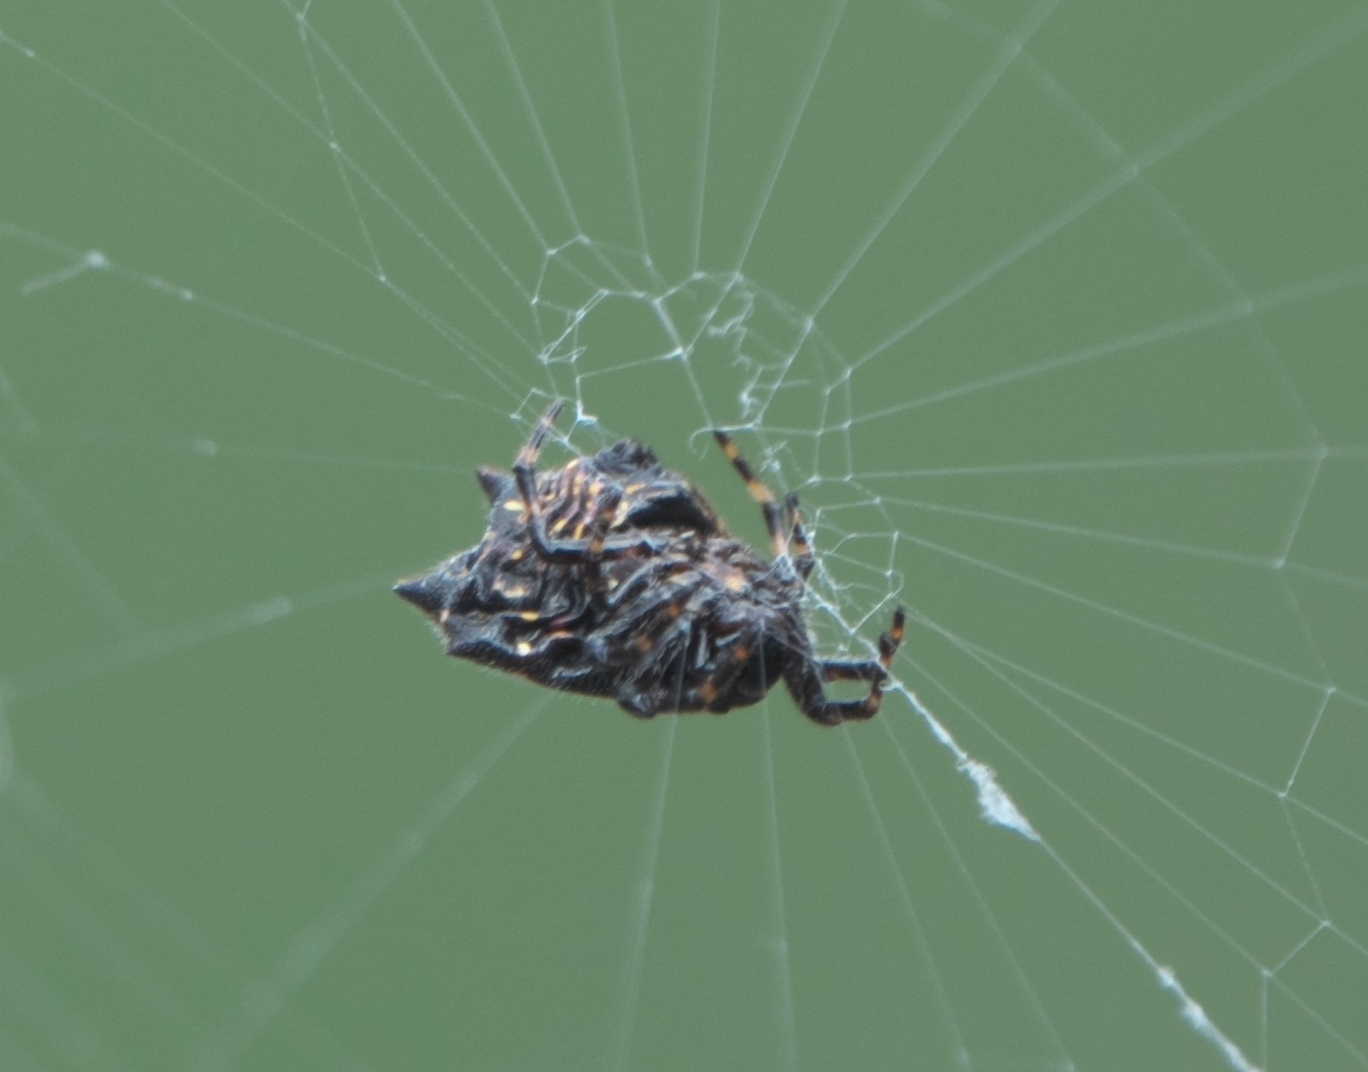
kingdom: Animalia
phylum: Arthropoda
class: Arachnida
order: Araneae
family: Araneidae
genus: Gasteracantha
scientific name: Gasteracantha cancriformis
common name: Orb weavers
